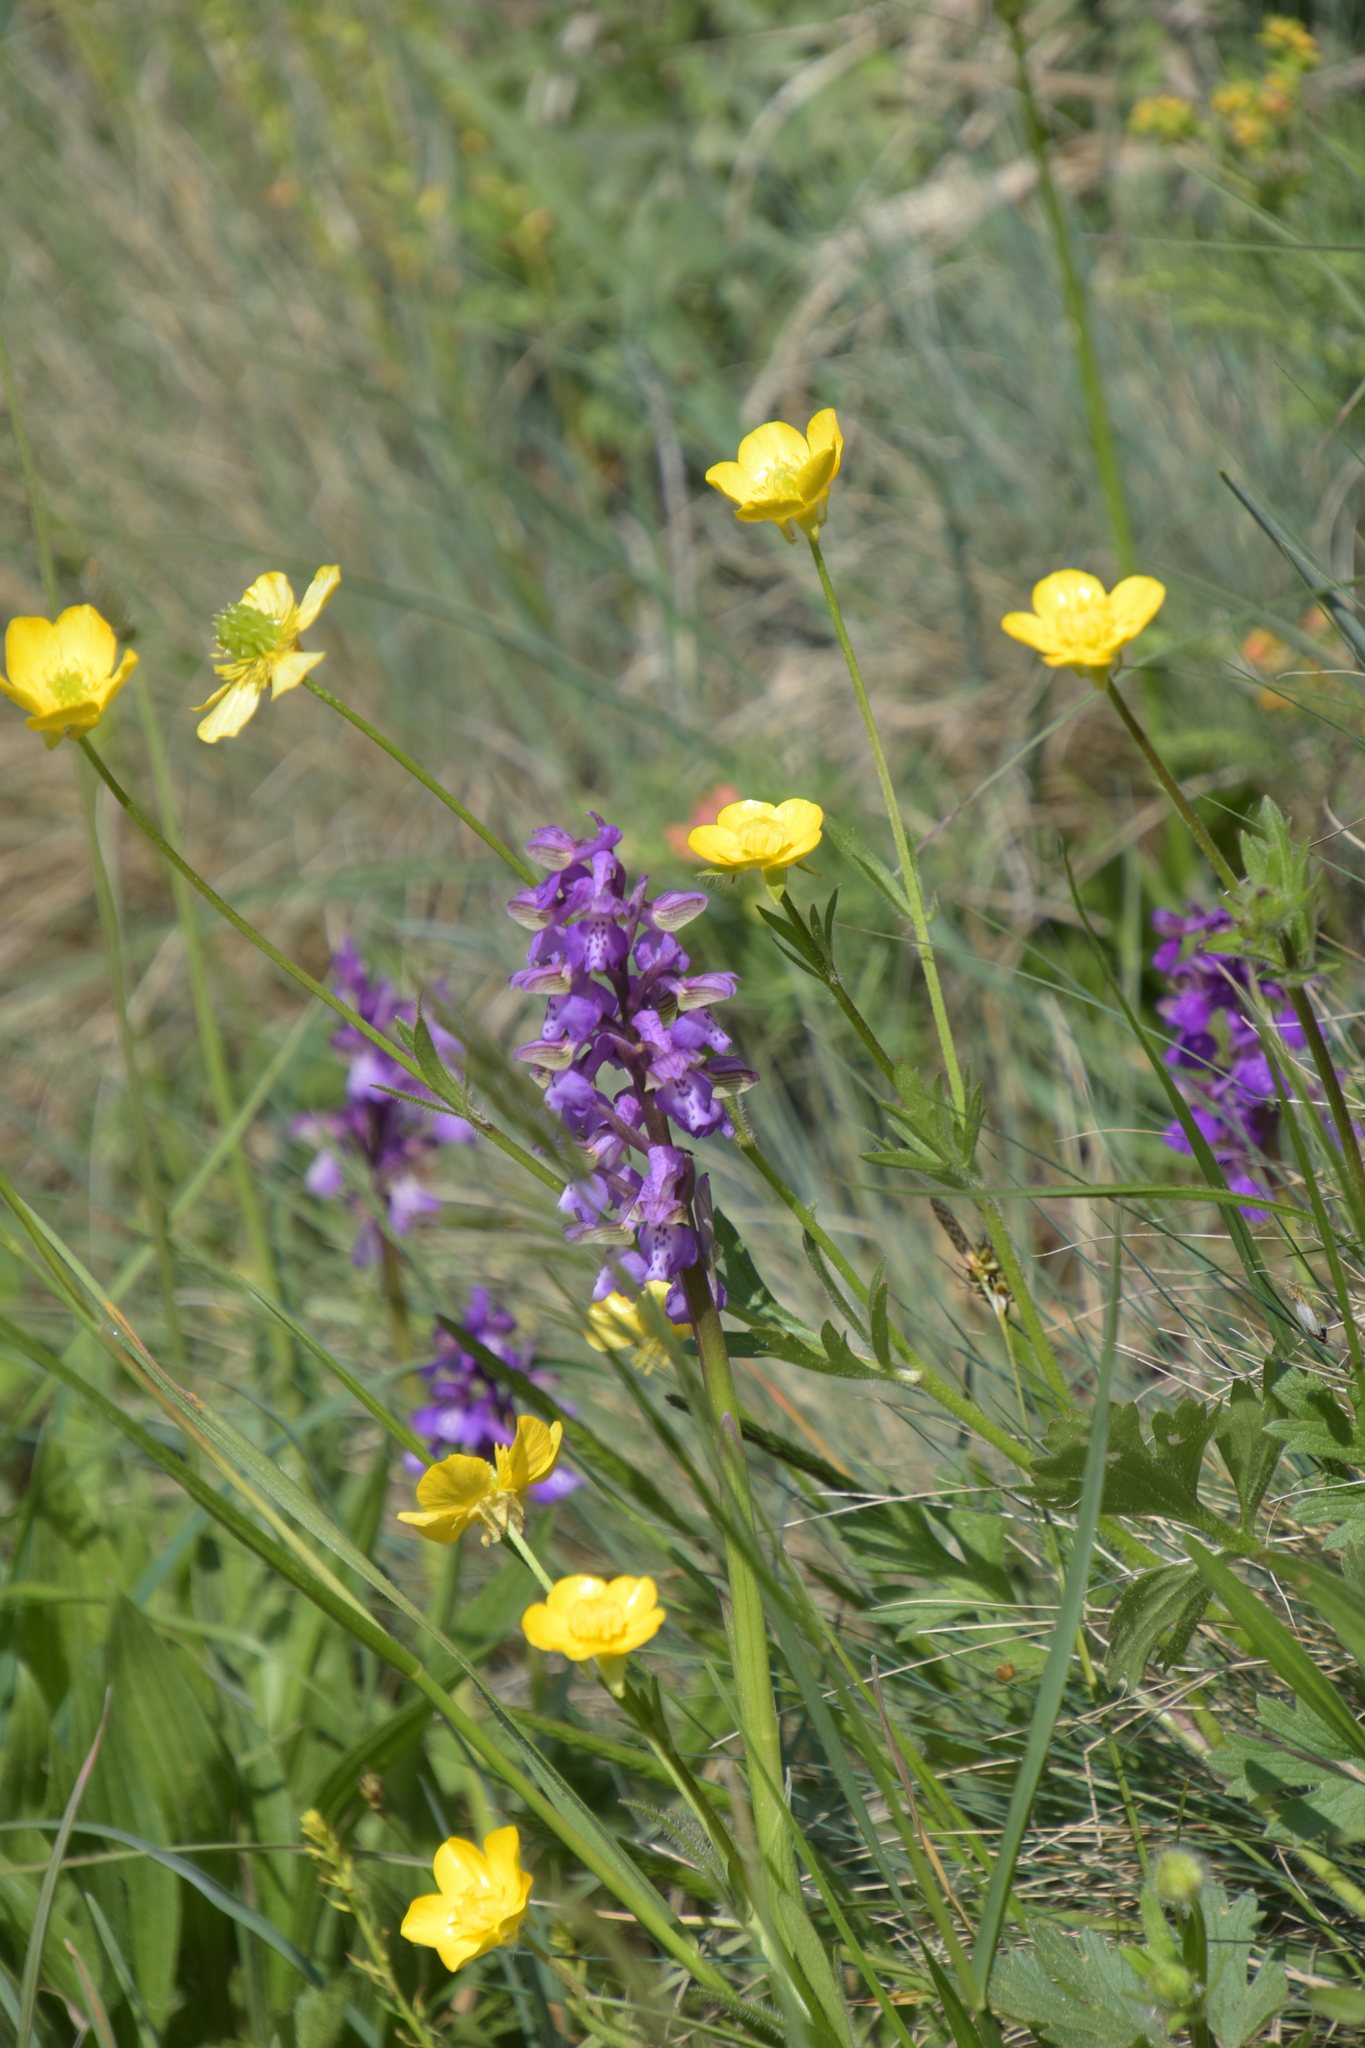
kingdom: Plantae
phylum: Tracheophyta
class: Liliopsida
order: Asparagales
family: Orchidaceae
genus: Anacamptis
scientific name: Anacamptis morio
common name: Green-winged orchid
